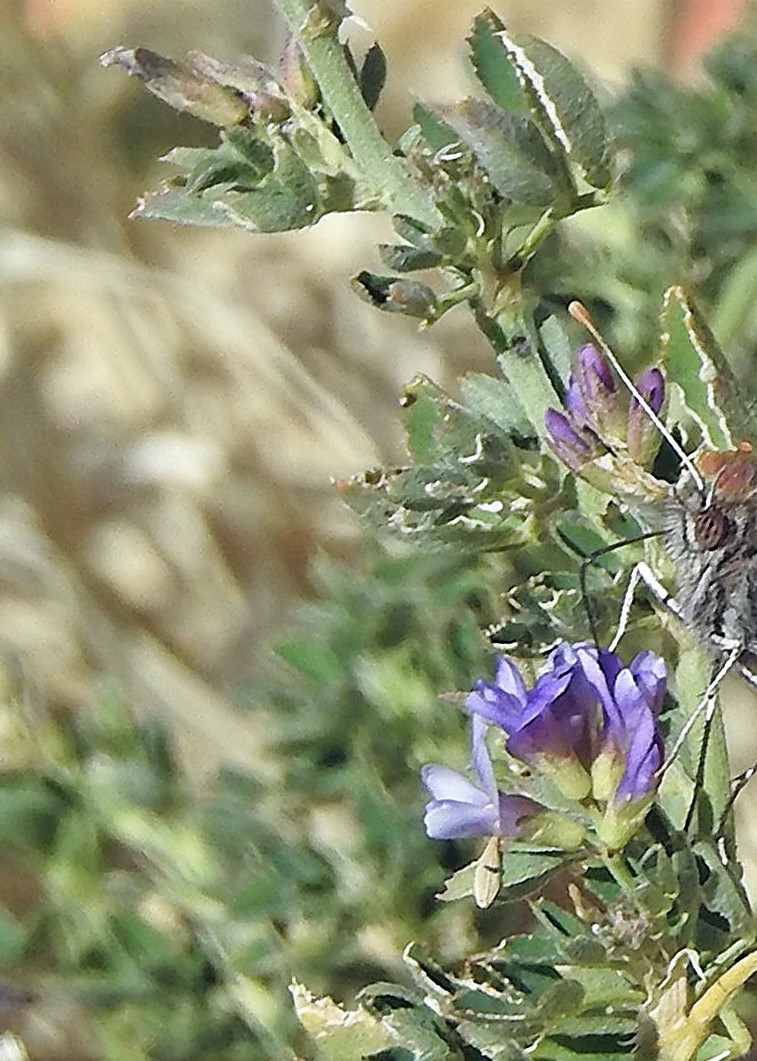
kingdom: Plantae
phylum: Tracheophyta
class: Magnoliopsida
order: Fabales
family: Fabaceae
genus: Medicago
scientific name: Medicago sativa
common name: Alfalfa
